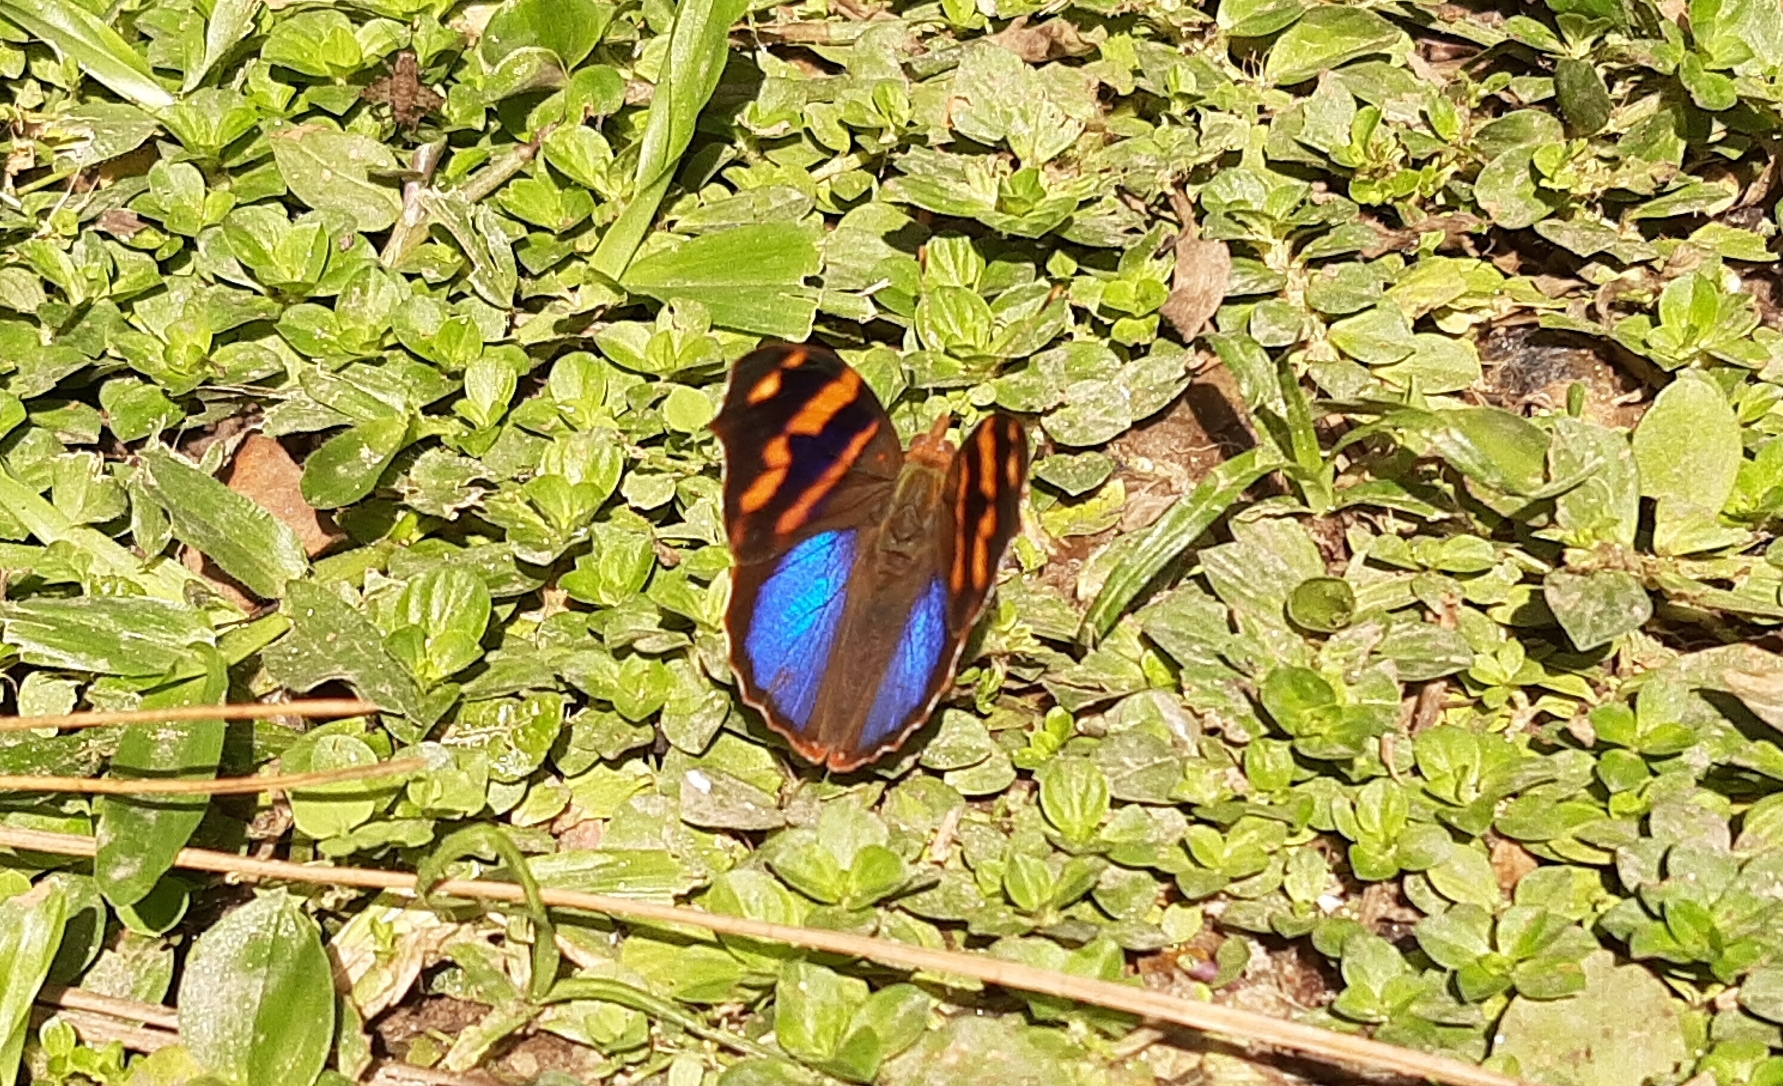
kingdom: Animalia
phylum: Arthropoda
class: Insecta
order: Lepidoptera
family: Nymphalidae
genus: Epiphile
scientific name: Epiphile orea
